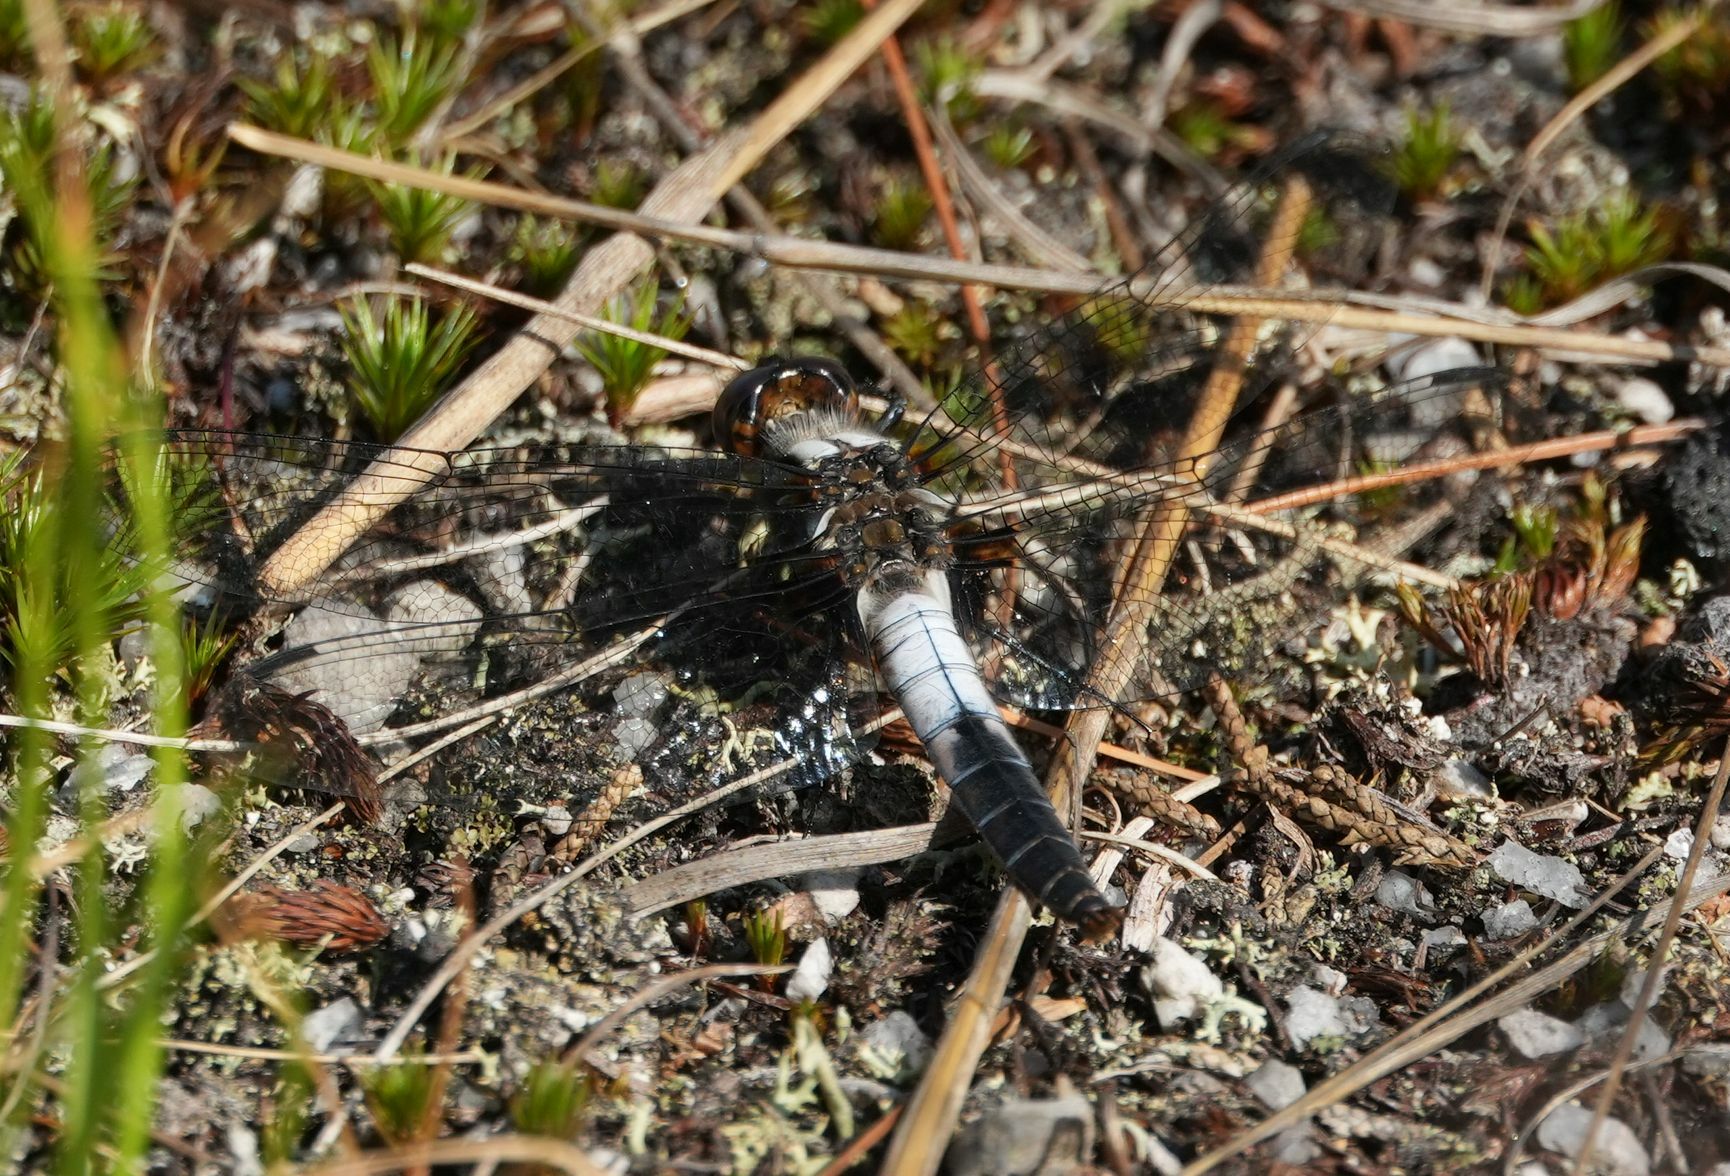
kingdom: Animalia
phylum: Arthropoda
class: Insecta
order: Odonata
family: Libellulidae
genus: Ladona
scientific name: Ladona julia
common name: Chalk-fronted corporal
